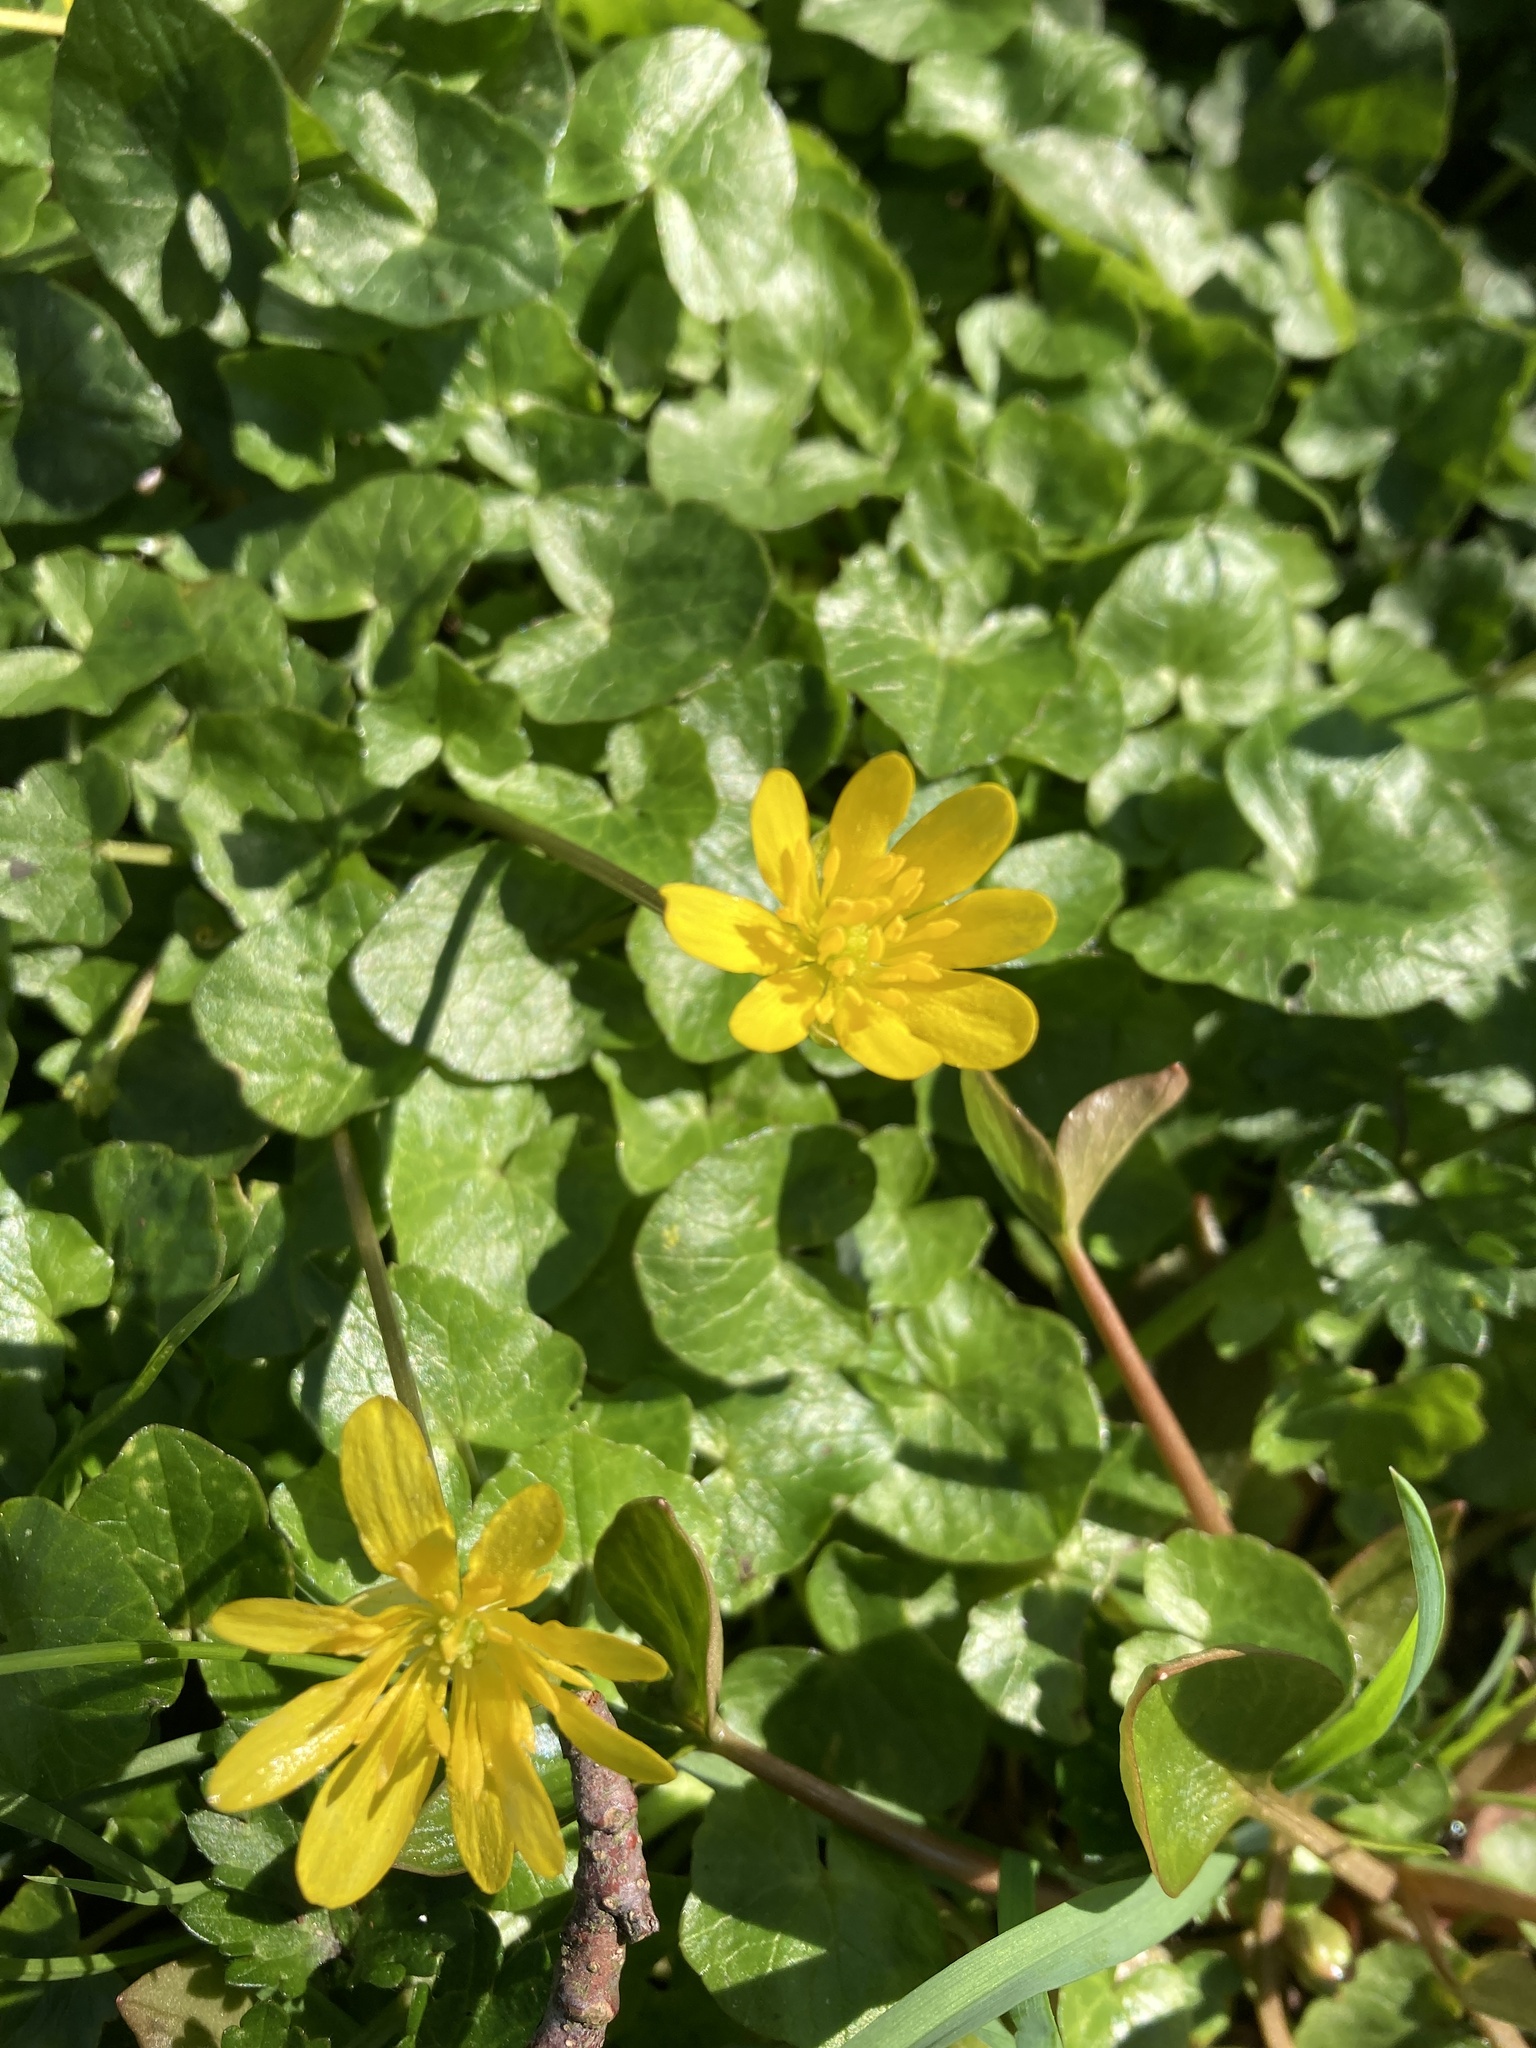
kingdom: Plantae
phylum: Tracheophyta
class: Magnoliopsida
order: Ranunculales
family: Ranunculaceae
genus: Ficaria
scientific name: Ficaria verna
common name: Lesser celandine
